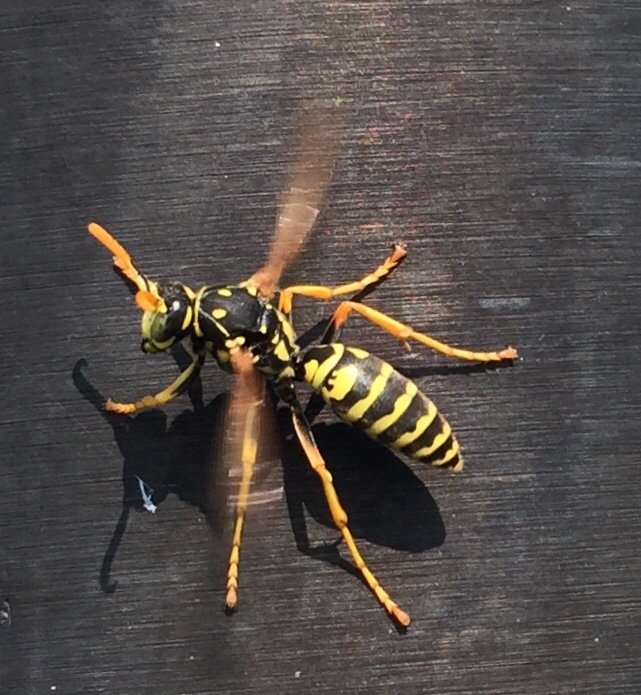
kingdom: Animalia
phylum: Arthropoda
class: Insecta
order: Hymenoptera
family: Eumenidae
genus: Polistes
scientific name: Polistes dominula
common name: Paper wasp
